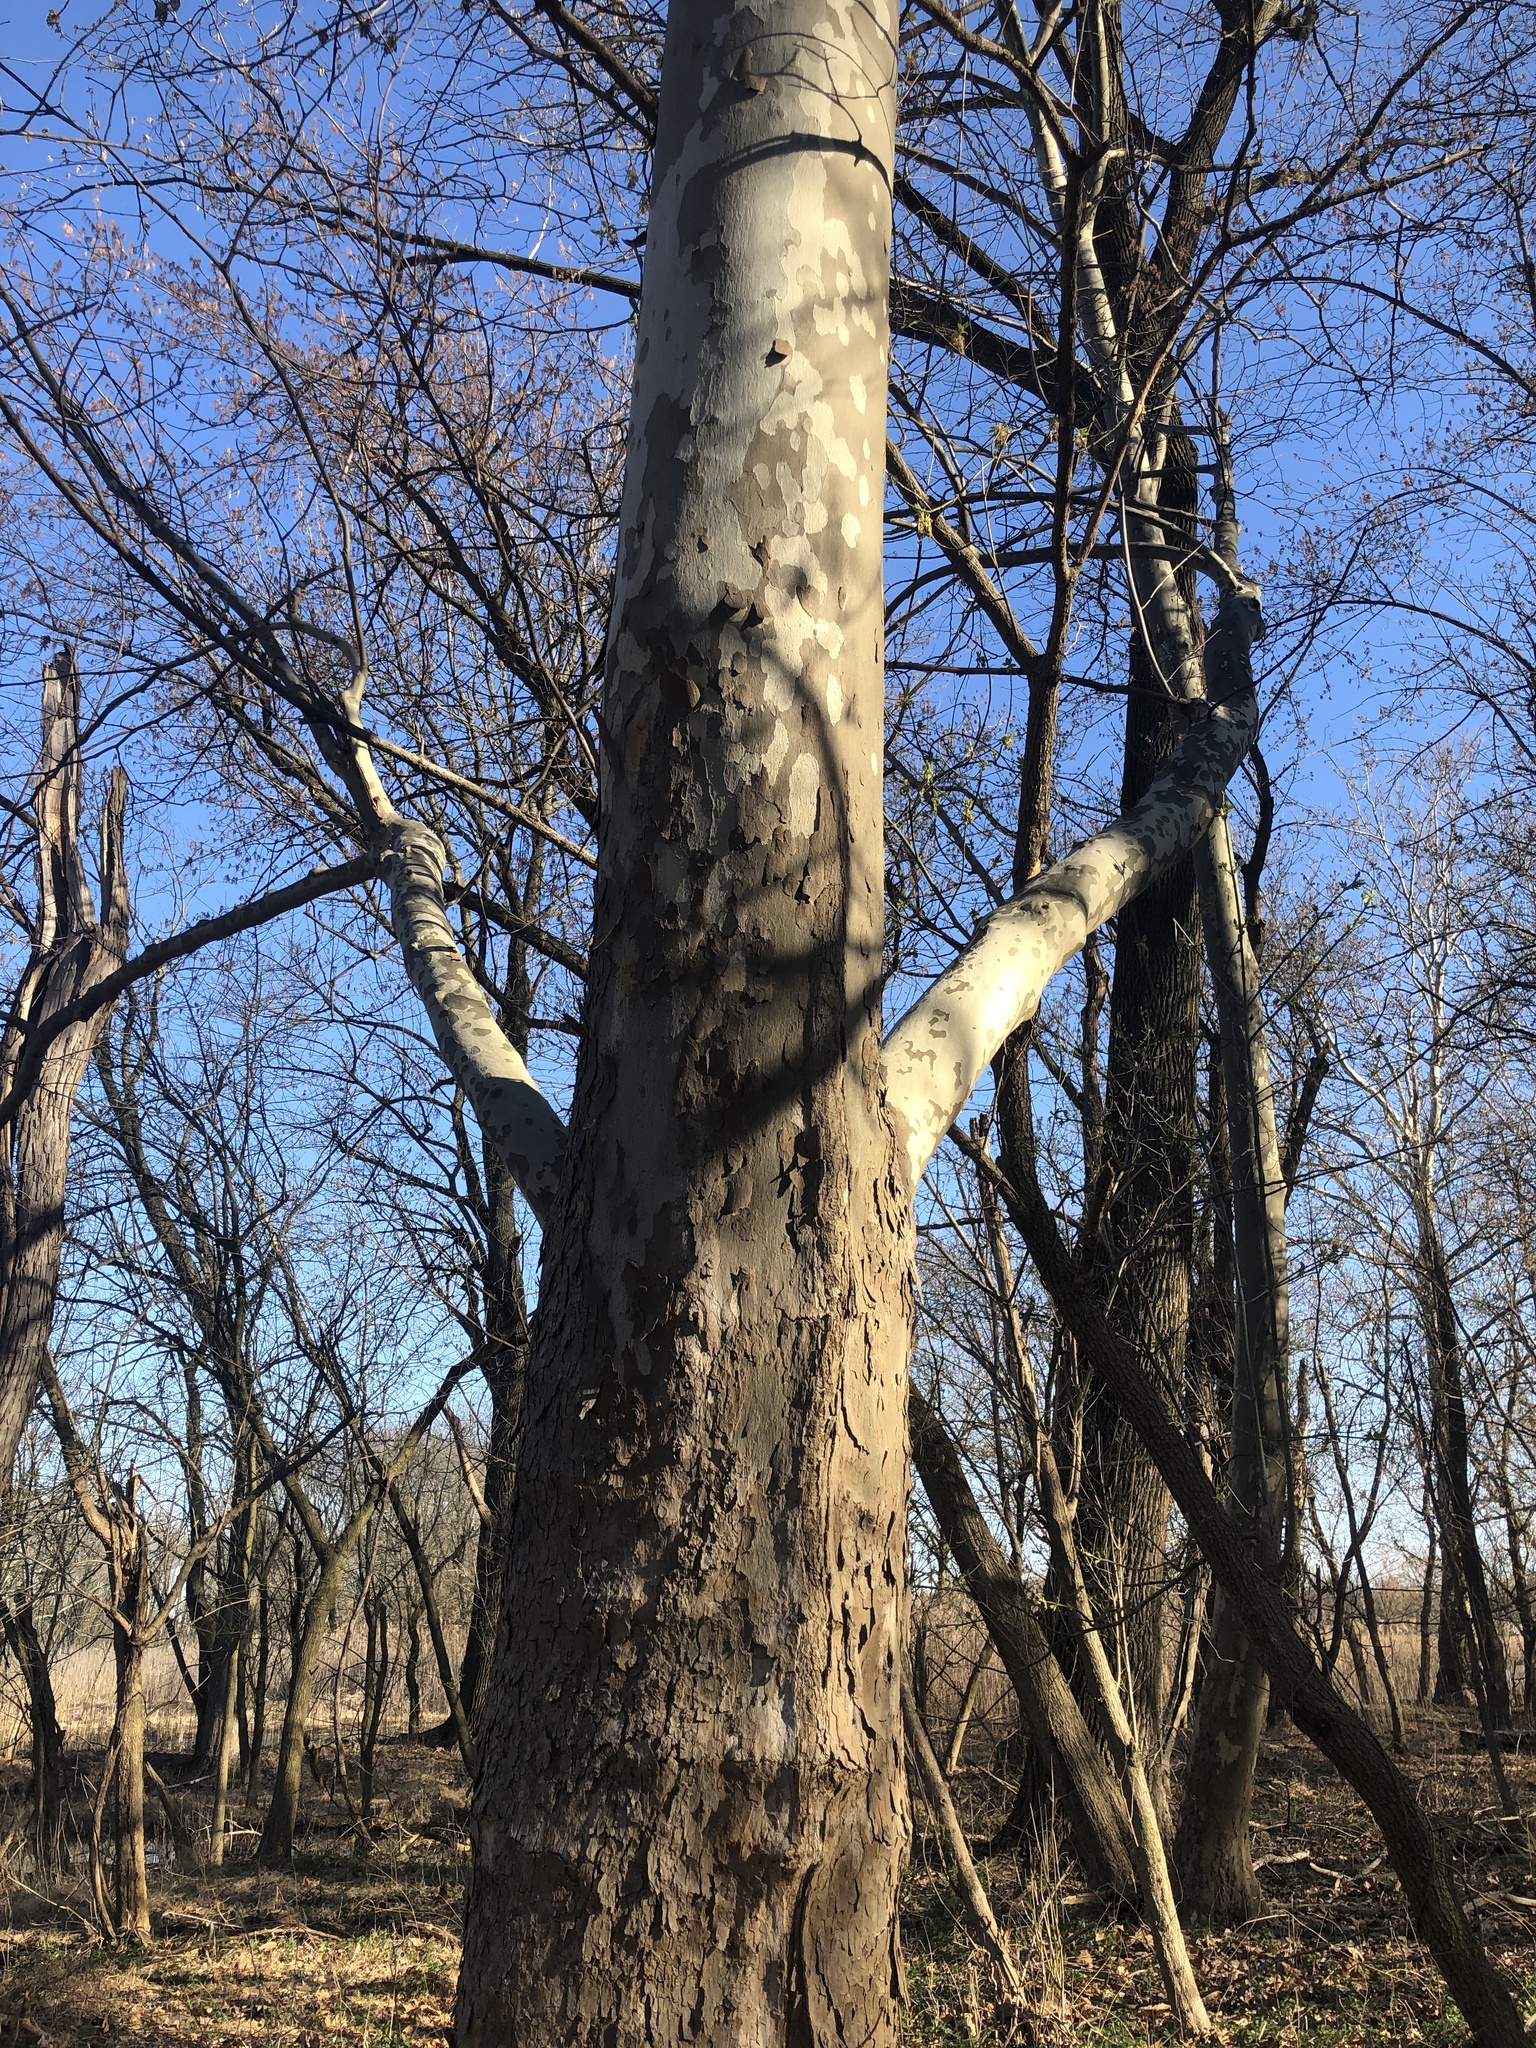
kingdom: Plantae
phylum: Tracheophyta
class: Magnoliopsida
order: Proteales
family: Platanaceae
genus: Platanus
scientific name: Platanus occidentalis
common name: American sycamore
